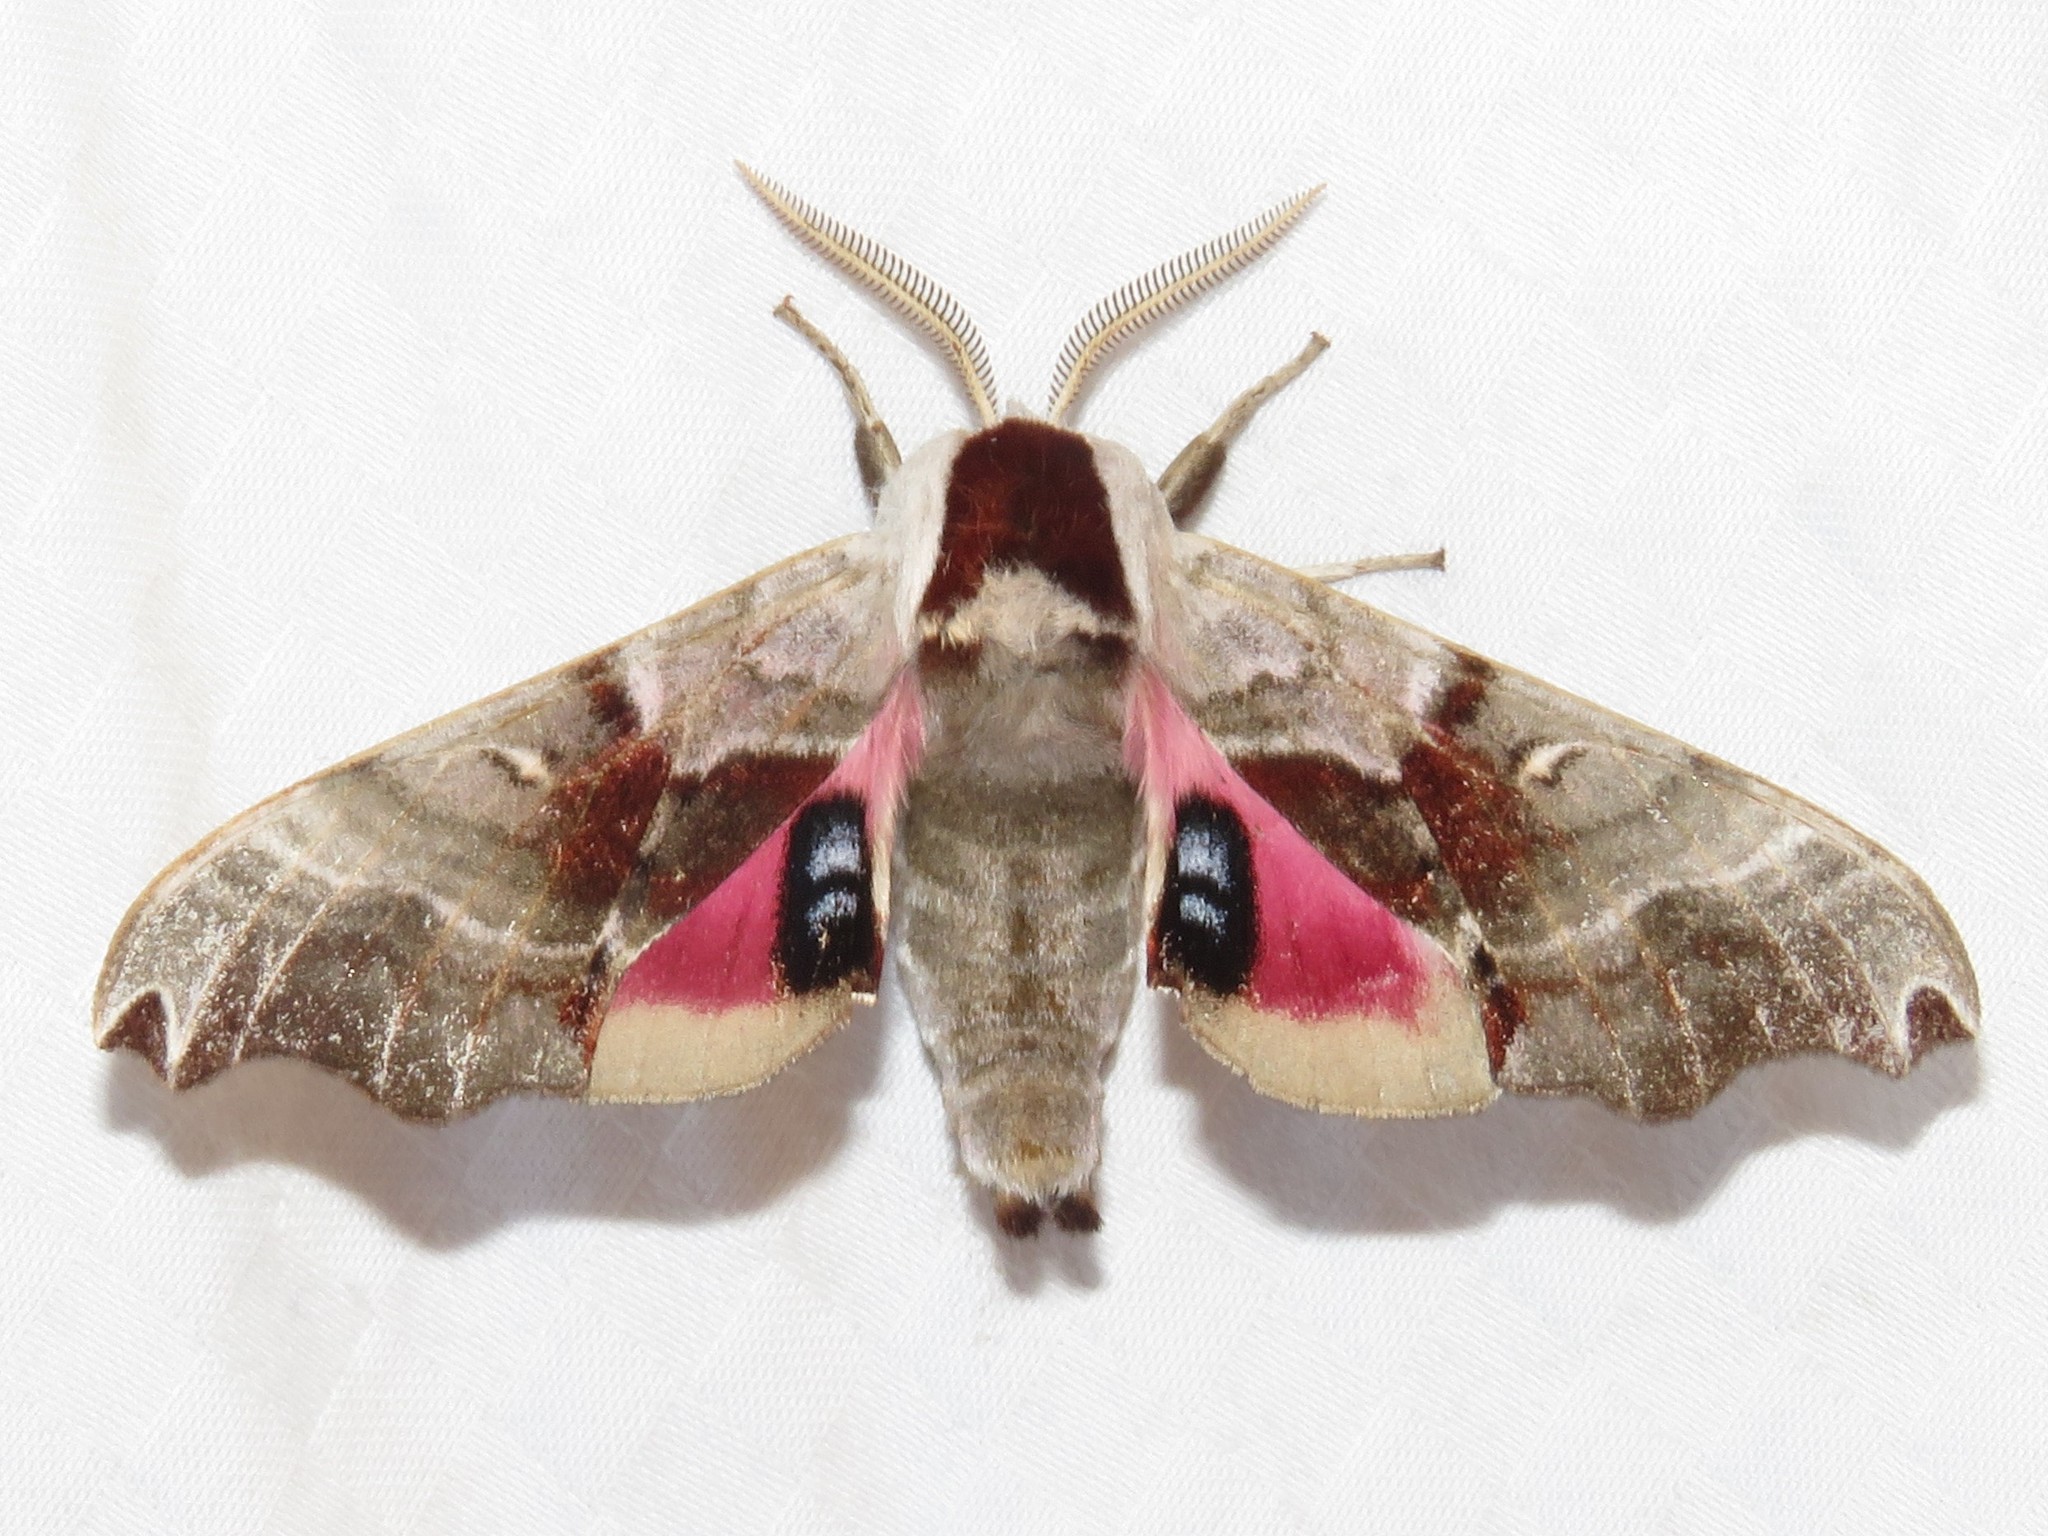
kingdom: Animalia
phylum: Arthropoda
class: Insecta
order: Lepidoptera
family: Sphingidae
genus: Smerinthus
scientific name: Smerinthus jamaicensis
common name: Twin spotted sphinx
